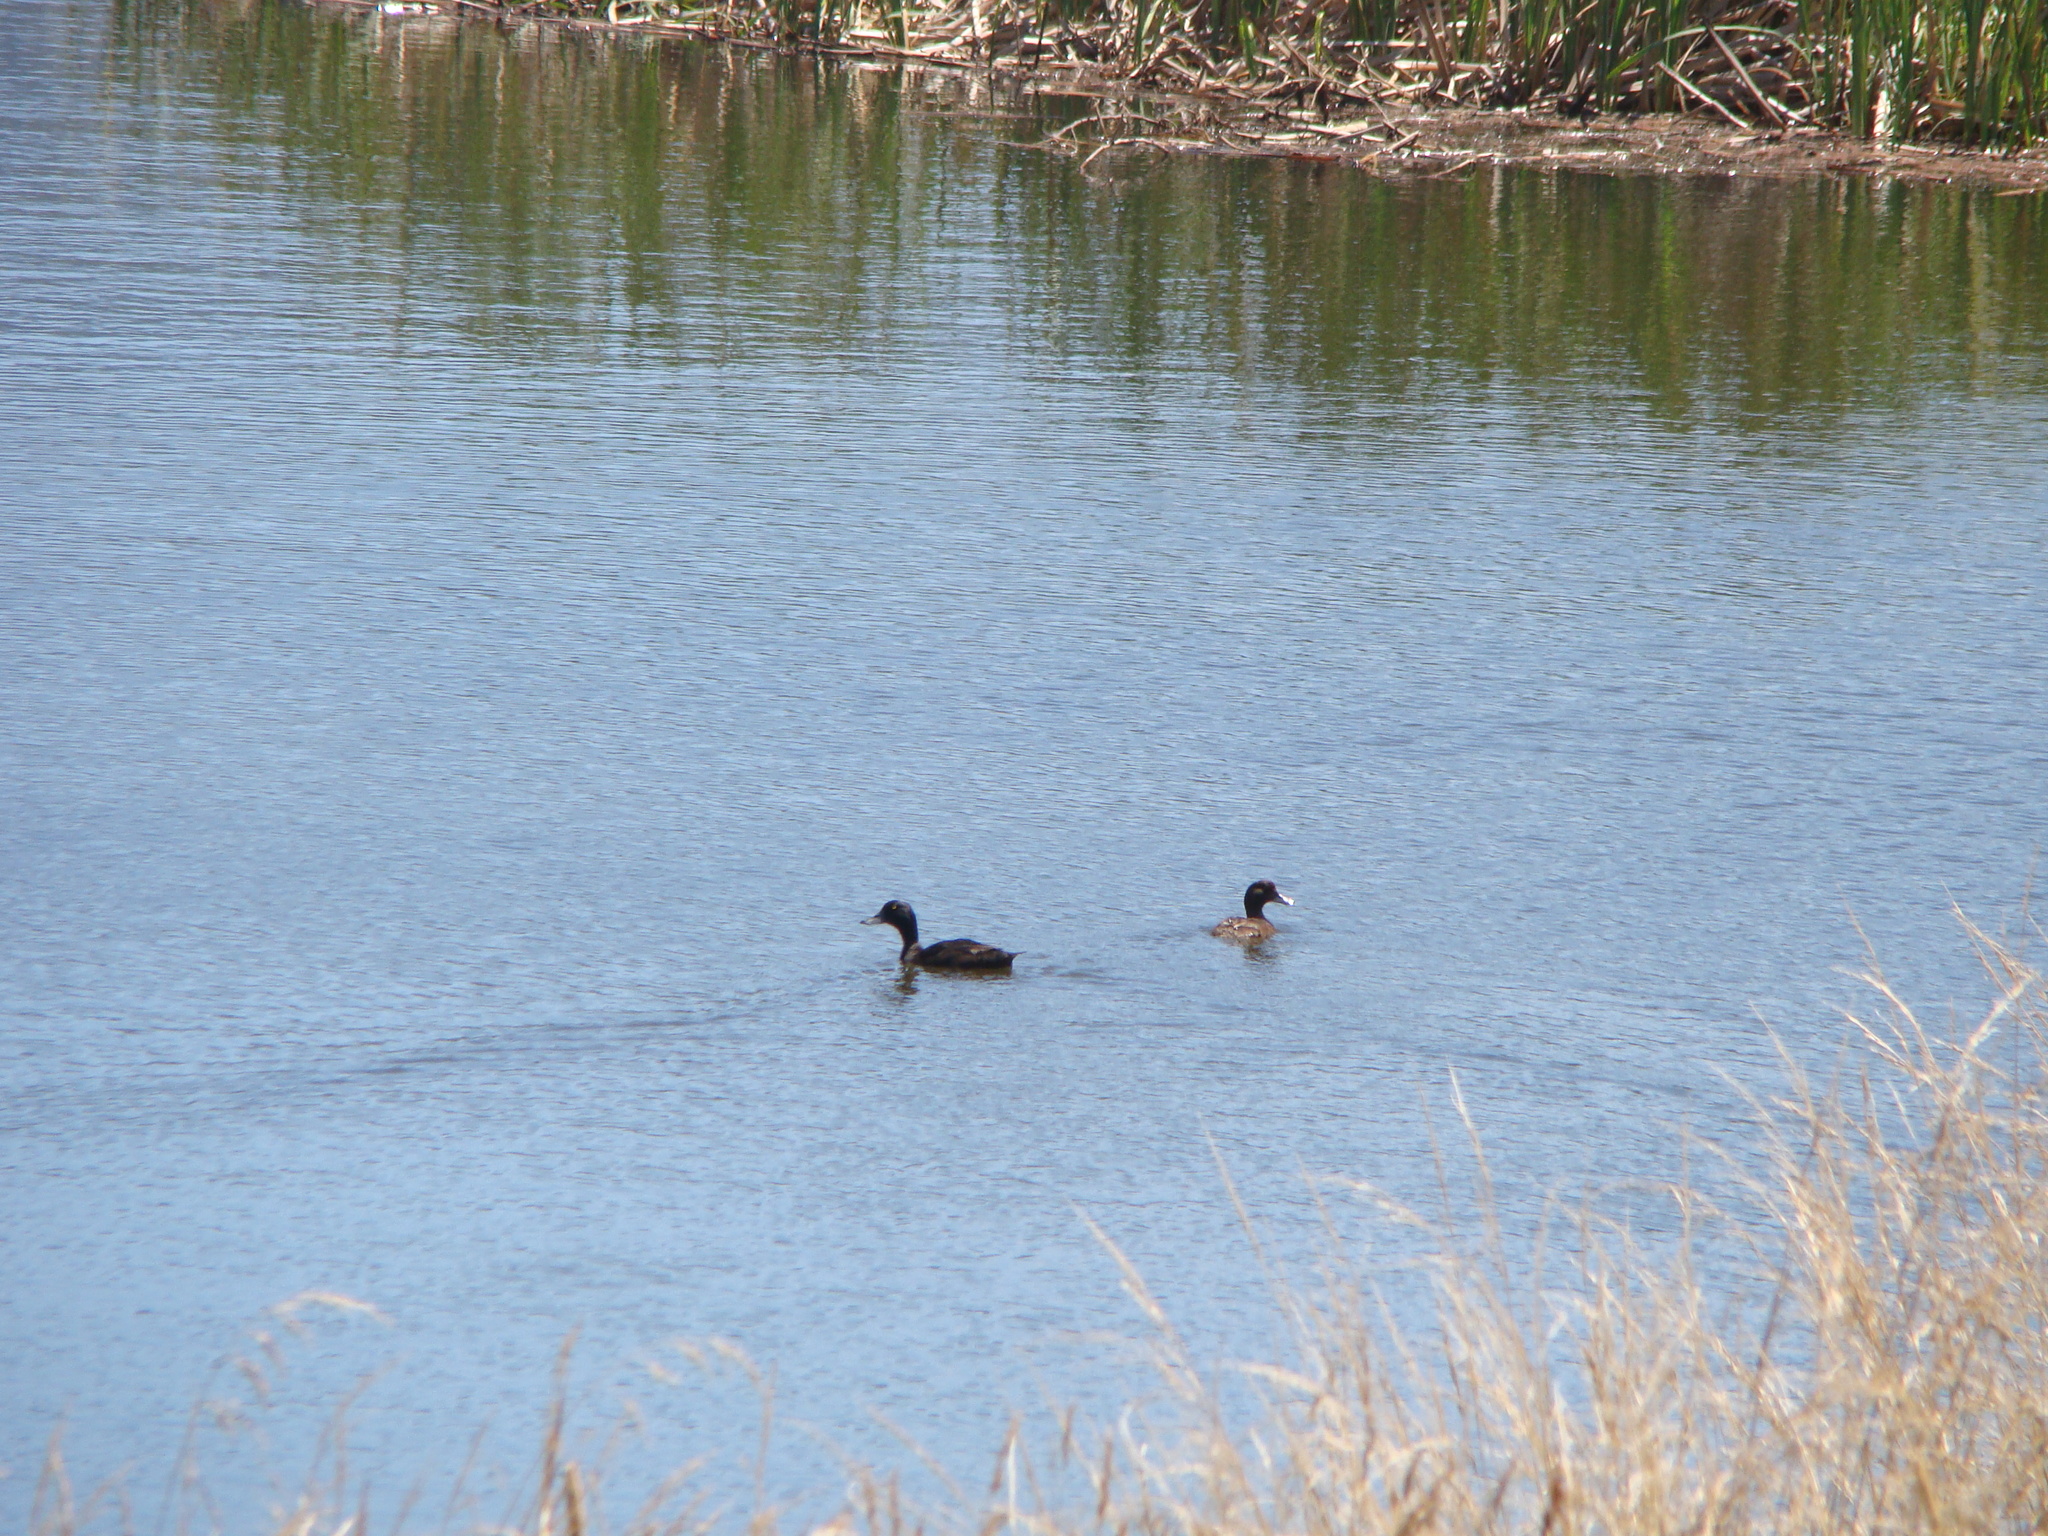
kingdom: Animalia
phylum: Chordata
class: Aves
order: Anseriformes
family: Anatidae
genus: Aythya
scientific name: Aythya novaeseelandiae
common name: New zealand scaup
